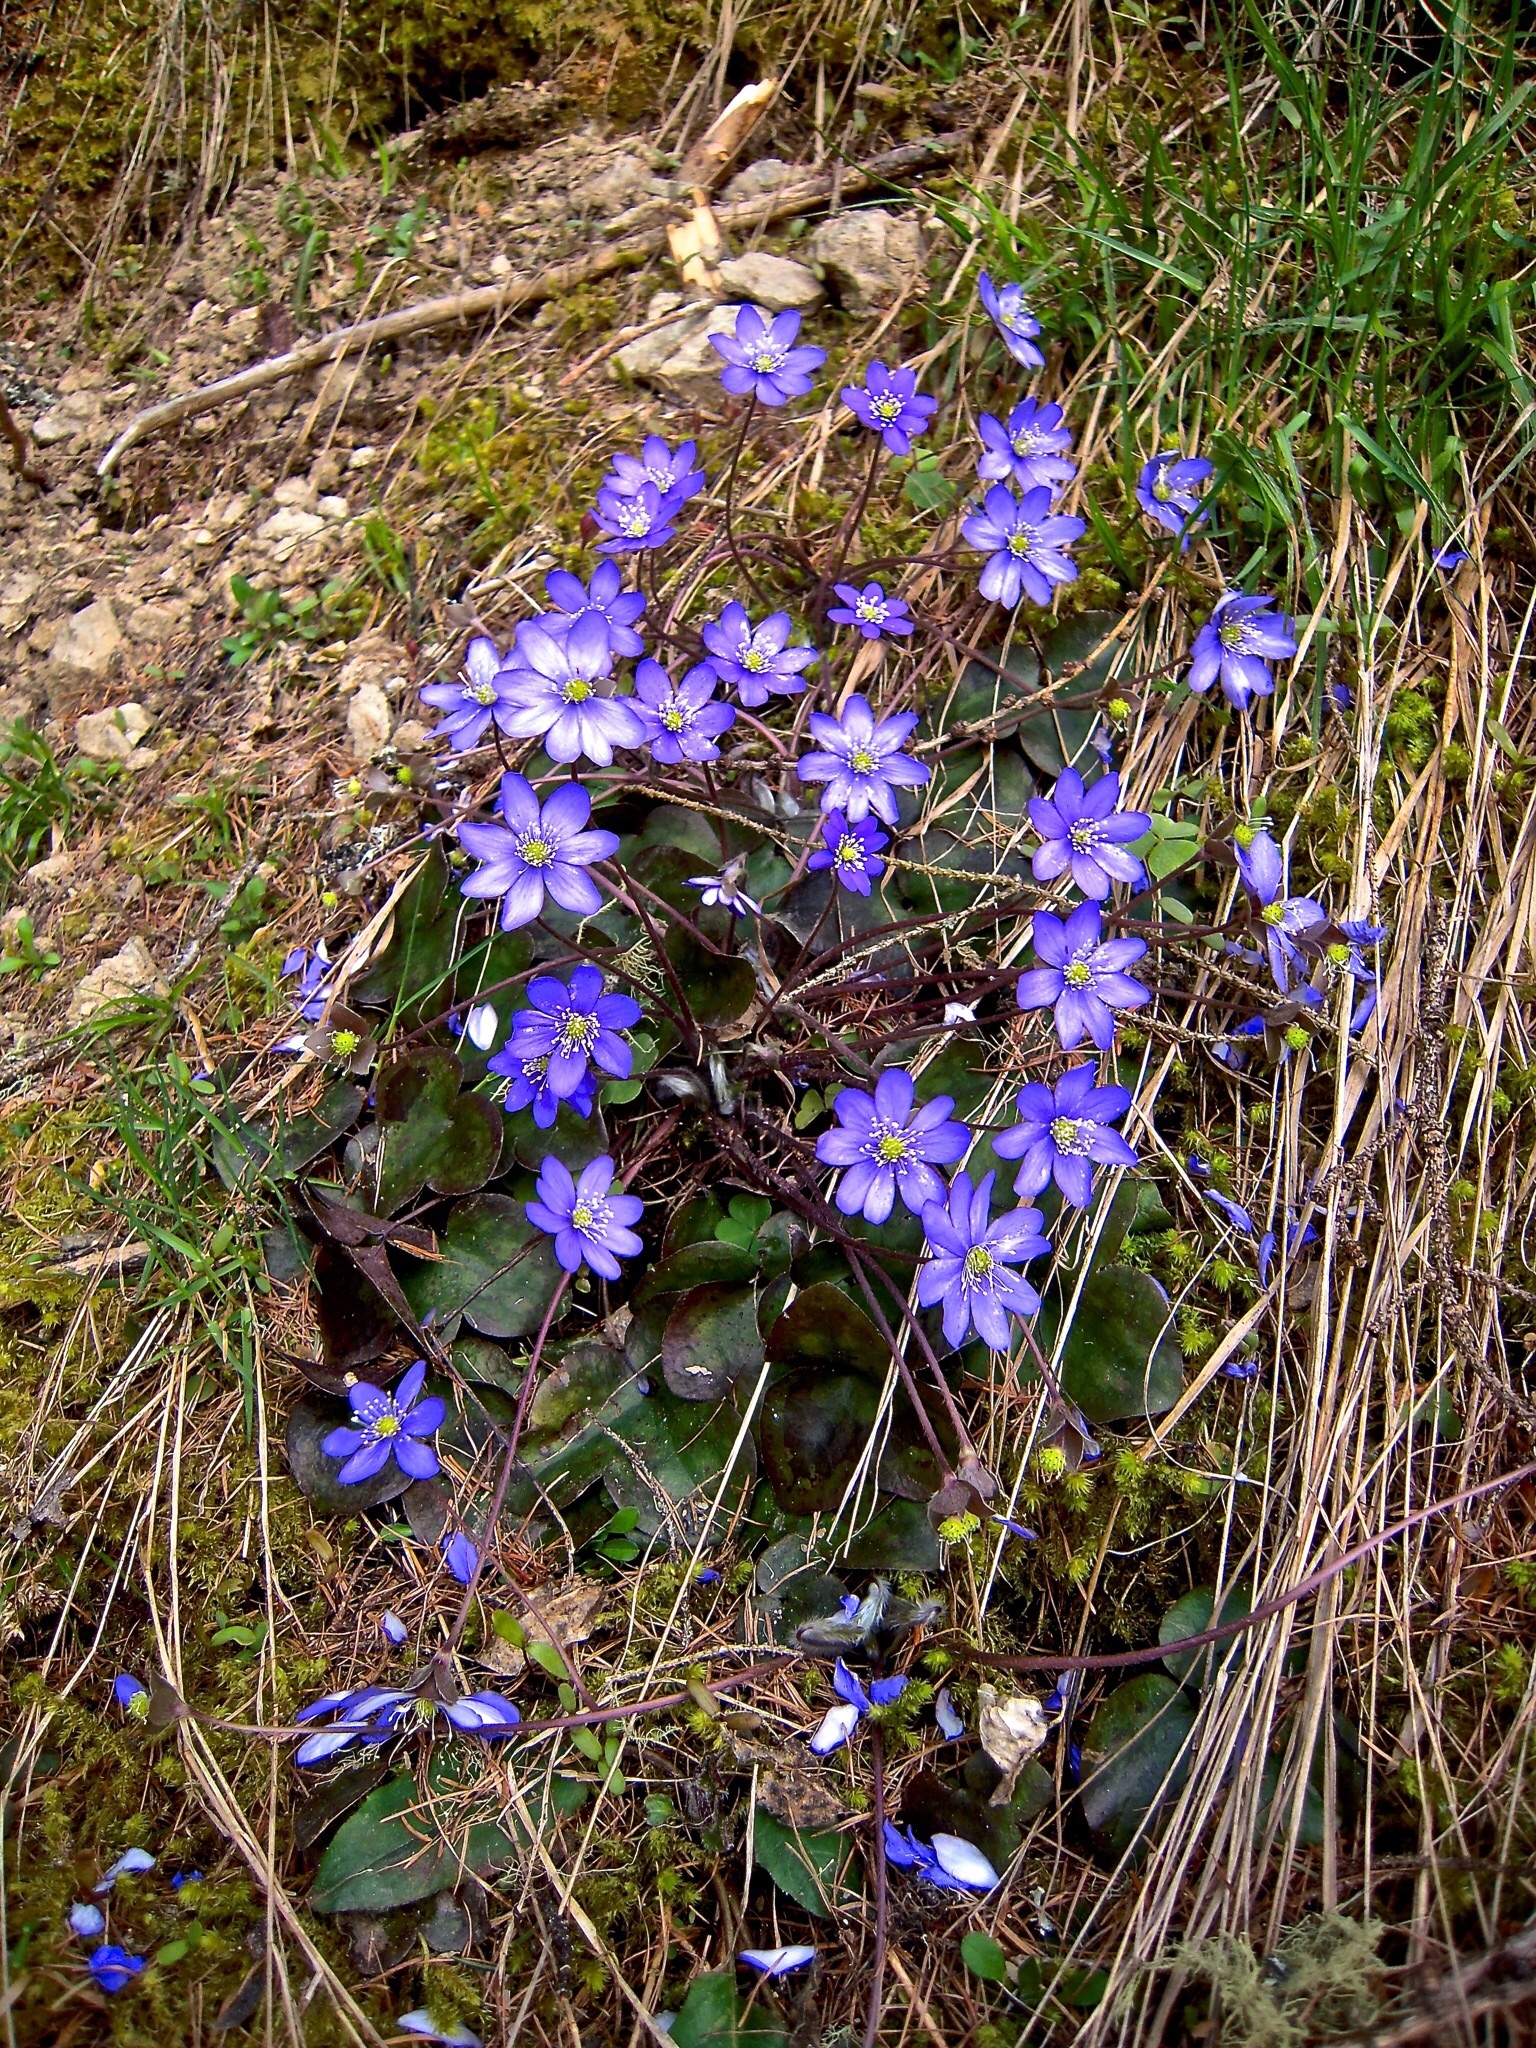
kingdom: Plantae
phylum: Tracheophyta
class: Magnoliopsida
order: Ranunculales
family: Ranunculaceae
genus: Hepatica
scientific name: Hepatica nobilis
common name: Liverleaf
